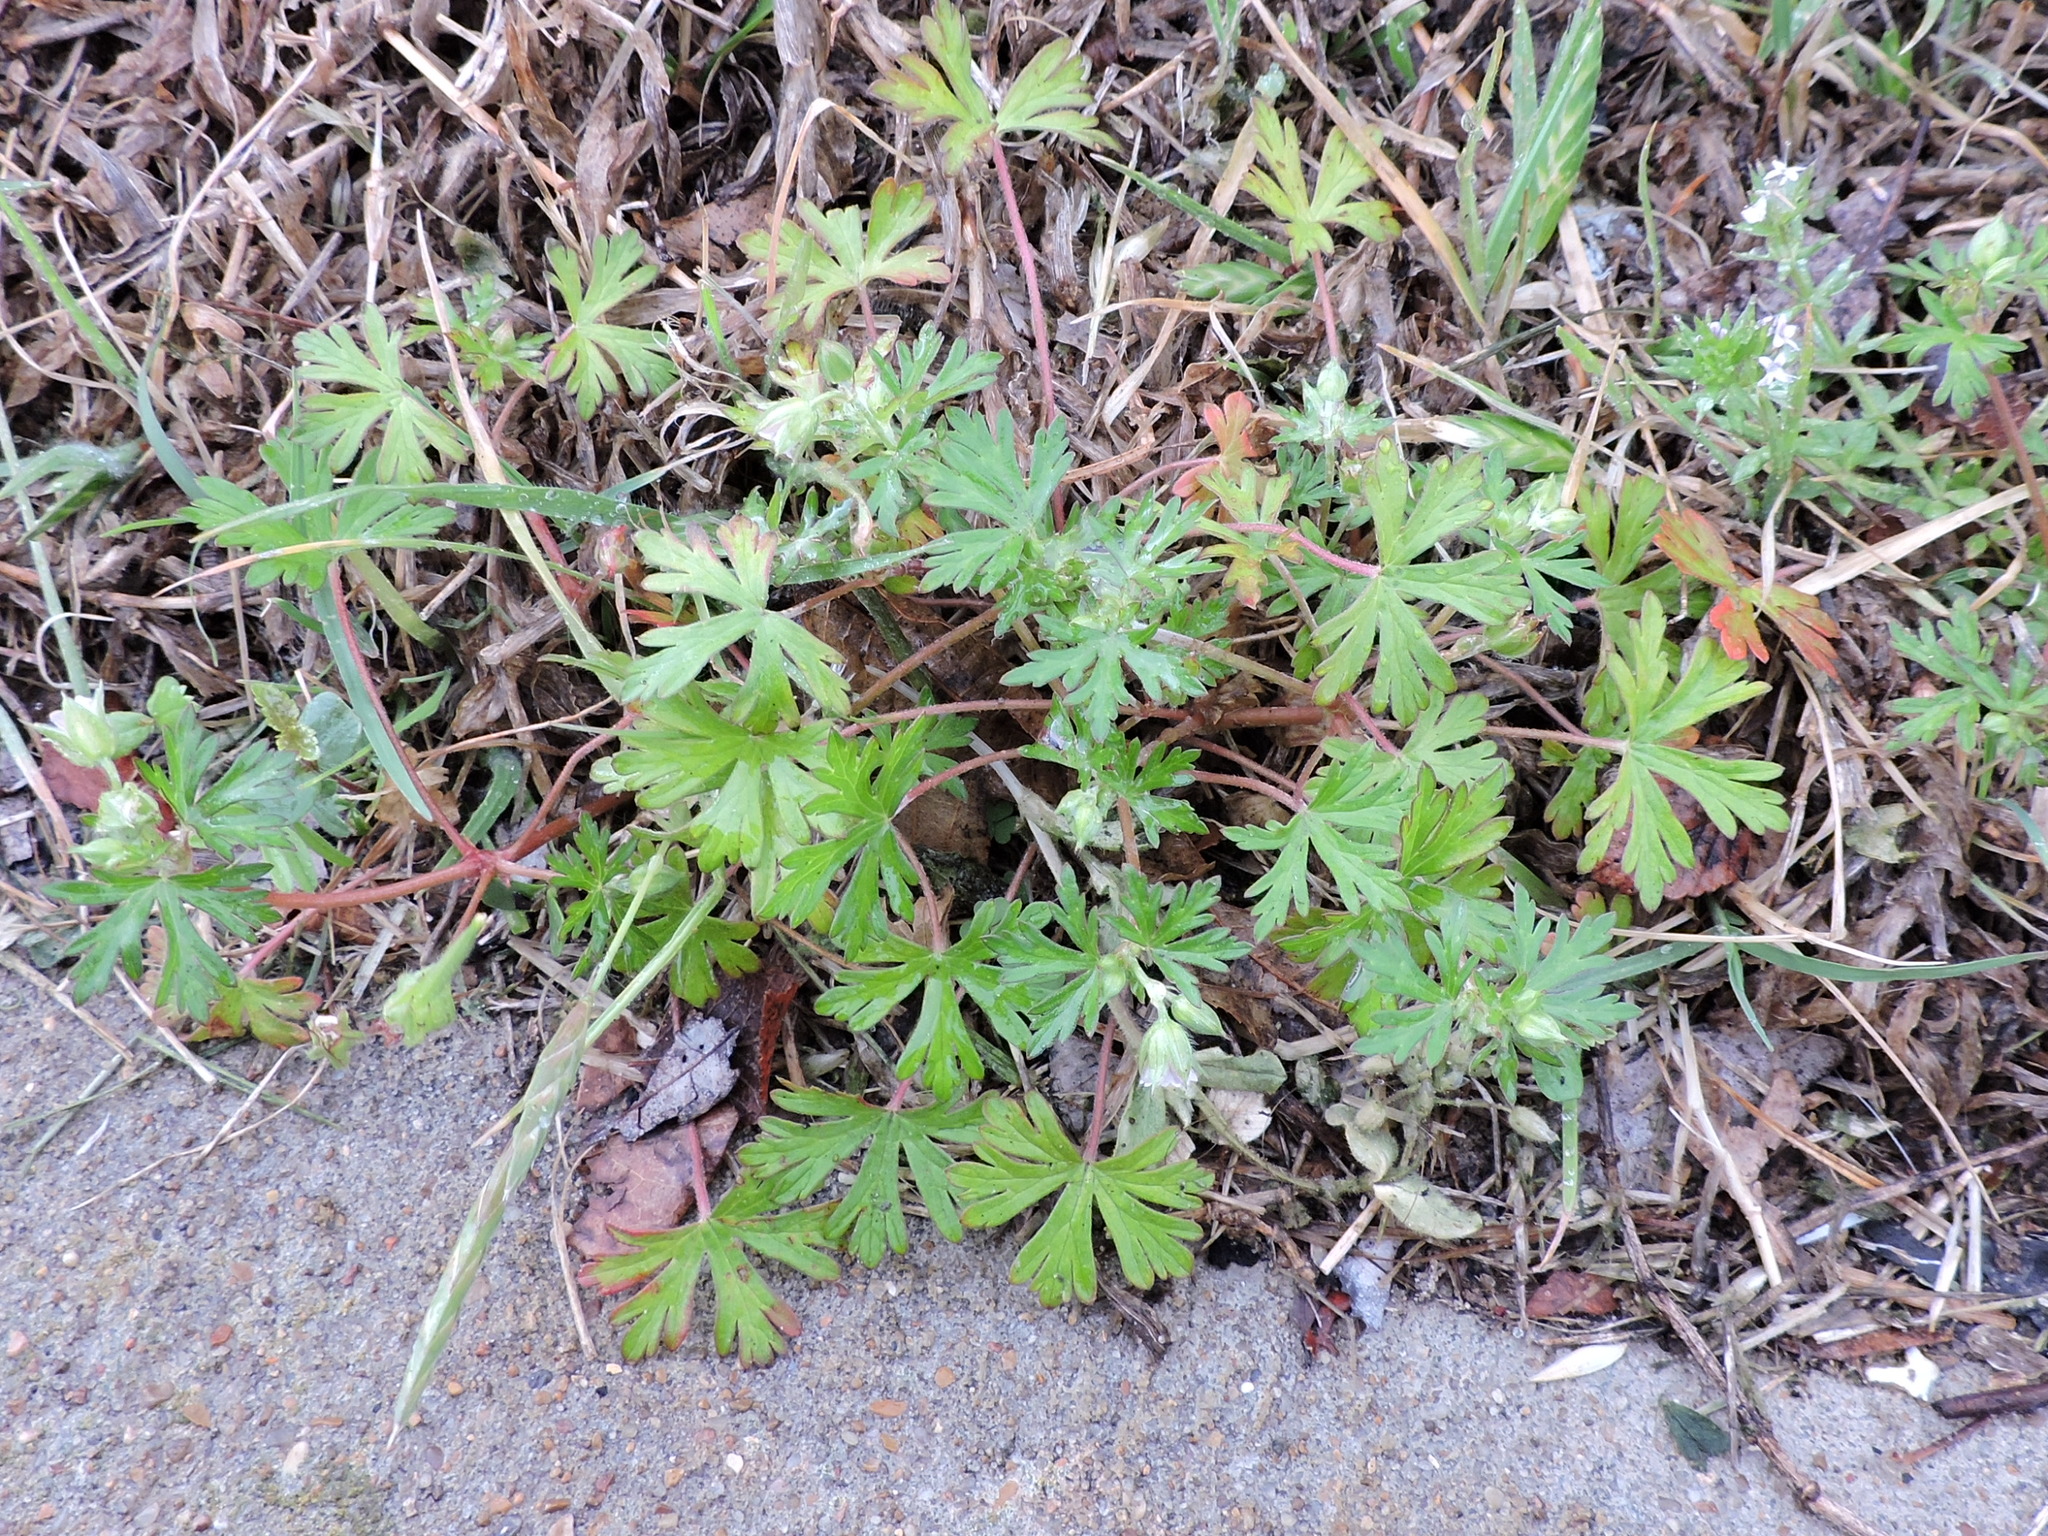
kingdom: Plantae
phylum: Tracheophyta
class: Magnoliopsida
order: Geraniales
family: Geraniaceae
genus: Geranium
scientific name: Geranium carolinianum
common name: Carolina crane's-bill
